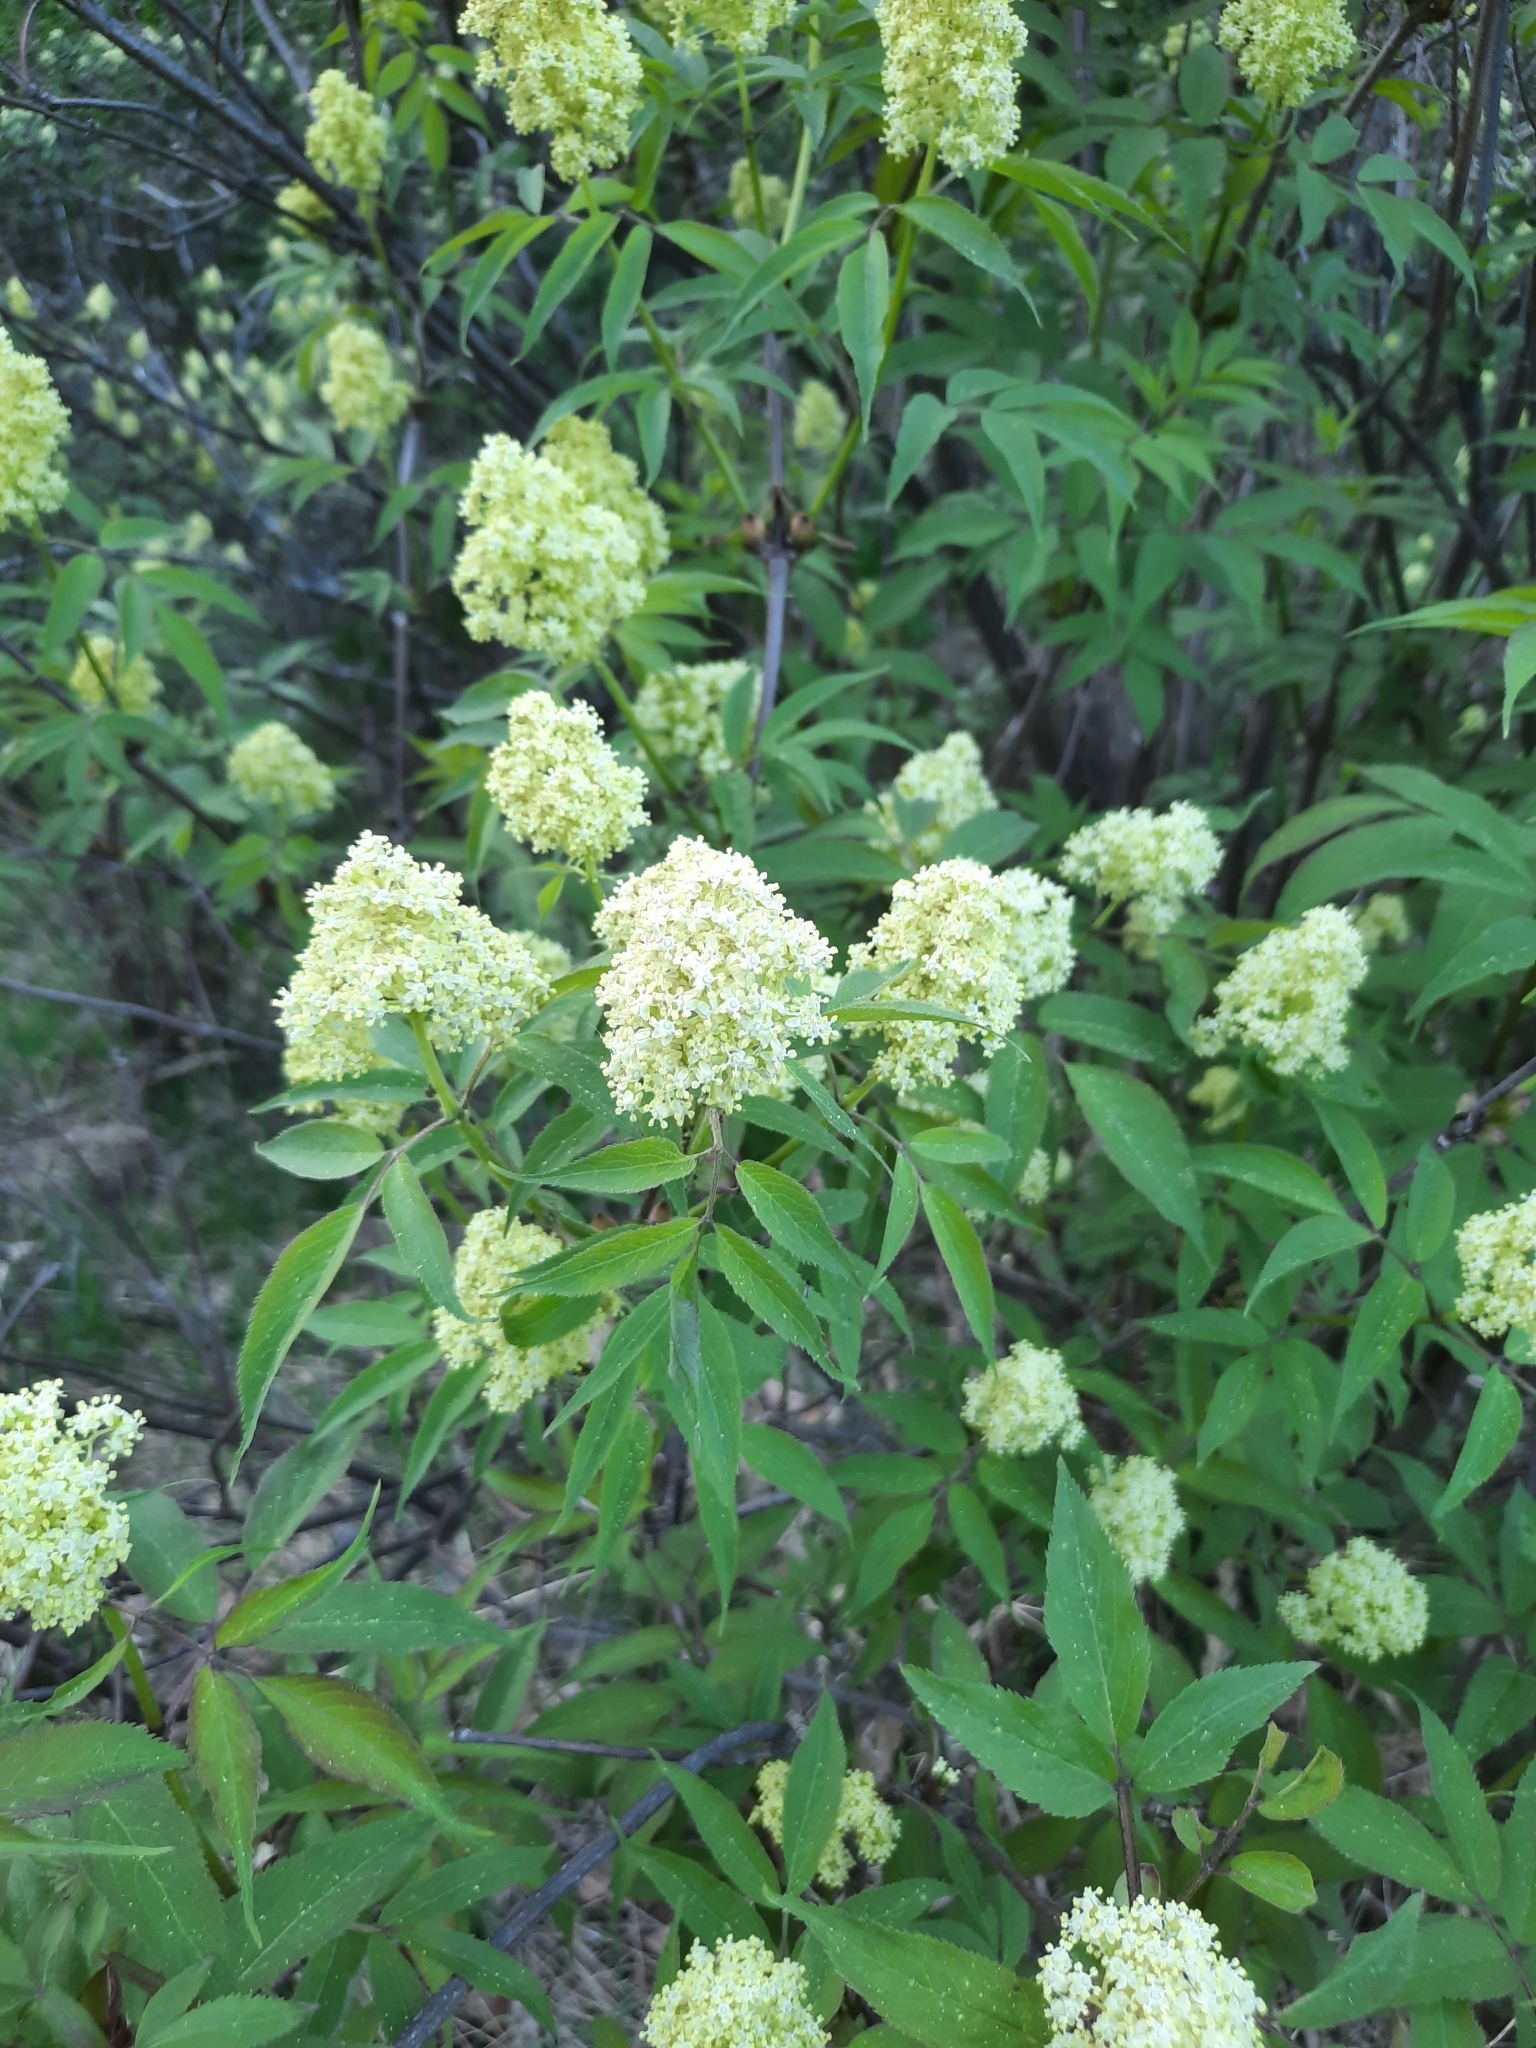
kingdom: Plantae
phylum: Tracheophyta
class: Magnoliopsida
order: Dipsacales
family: Viburnaceae
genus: Sambucus
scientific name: Sambucus racemosa
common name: Red-berried elder
